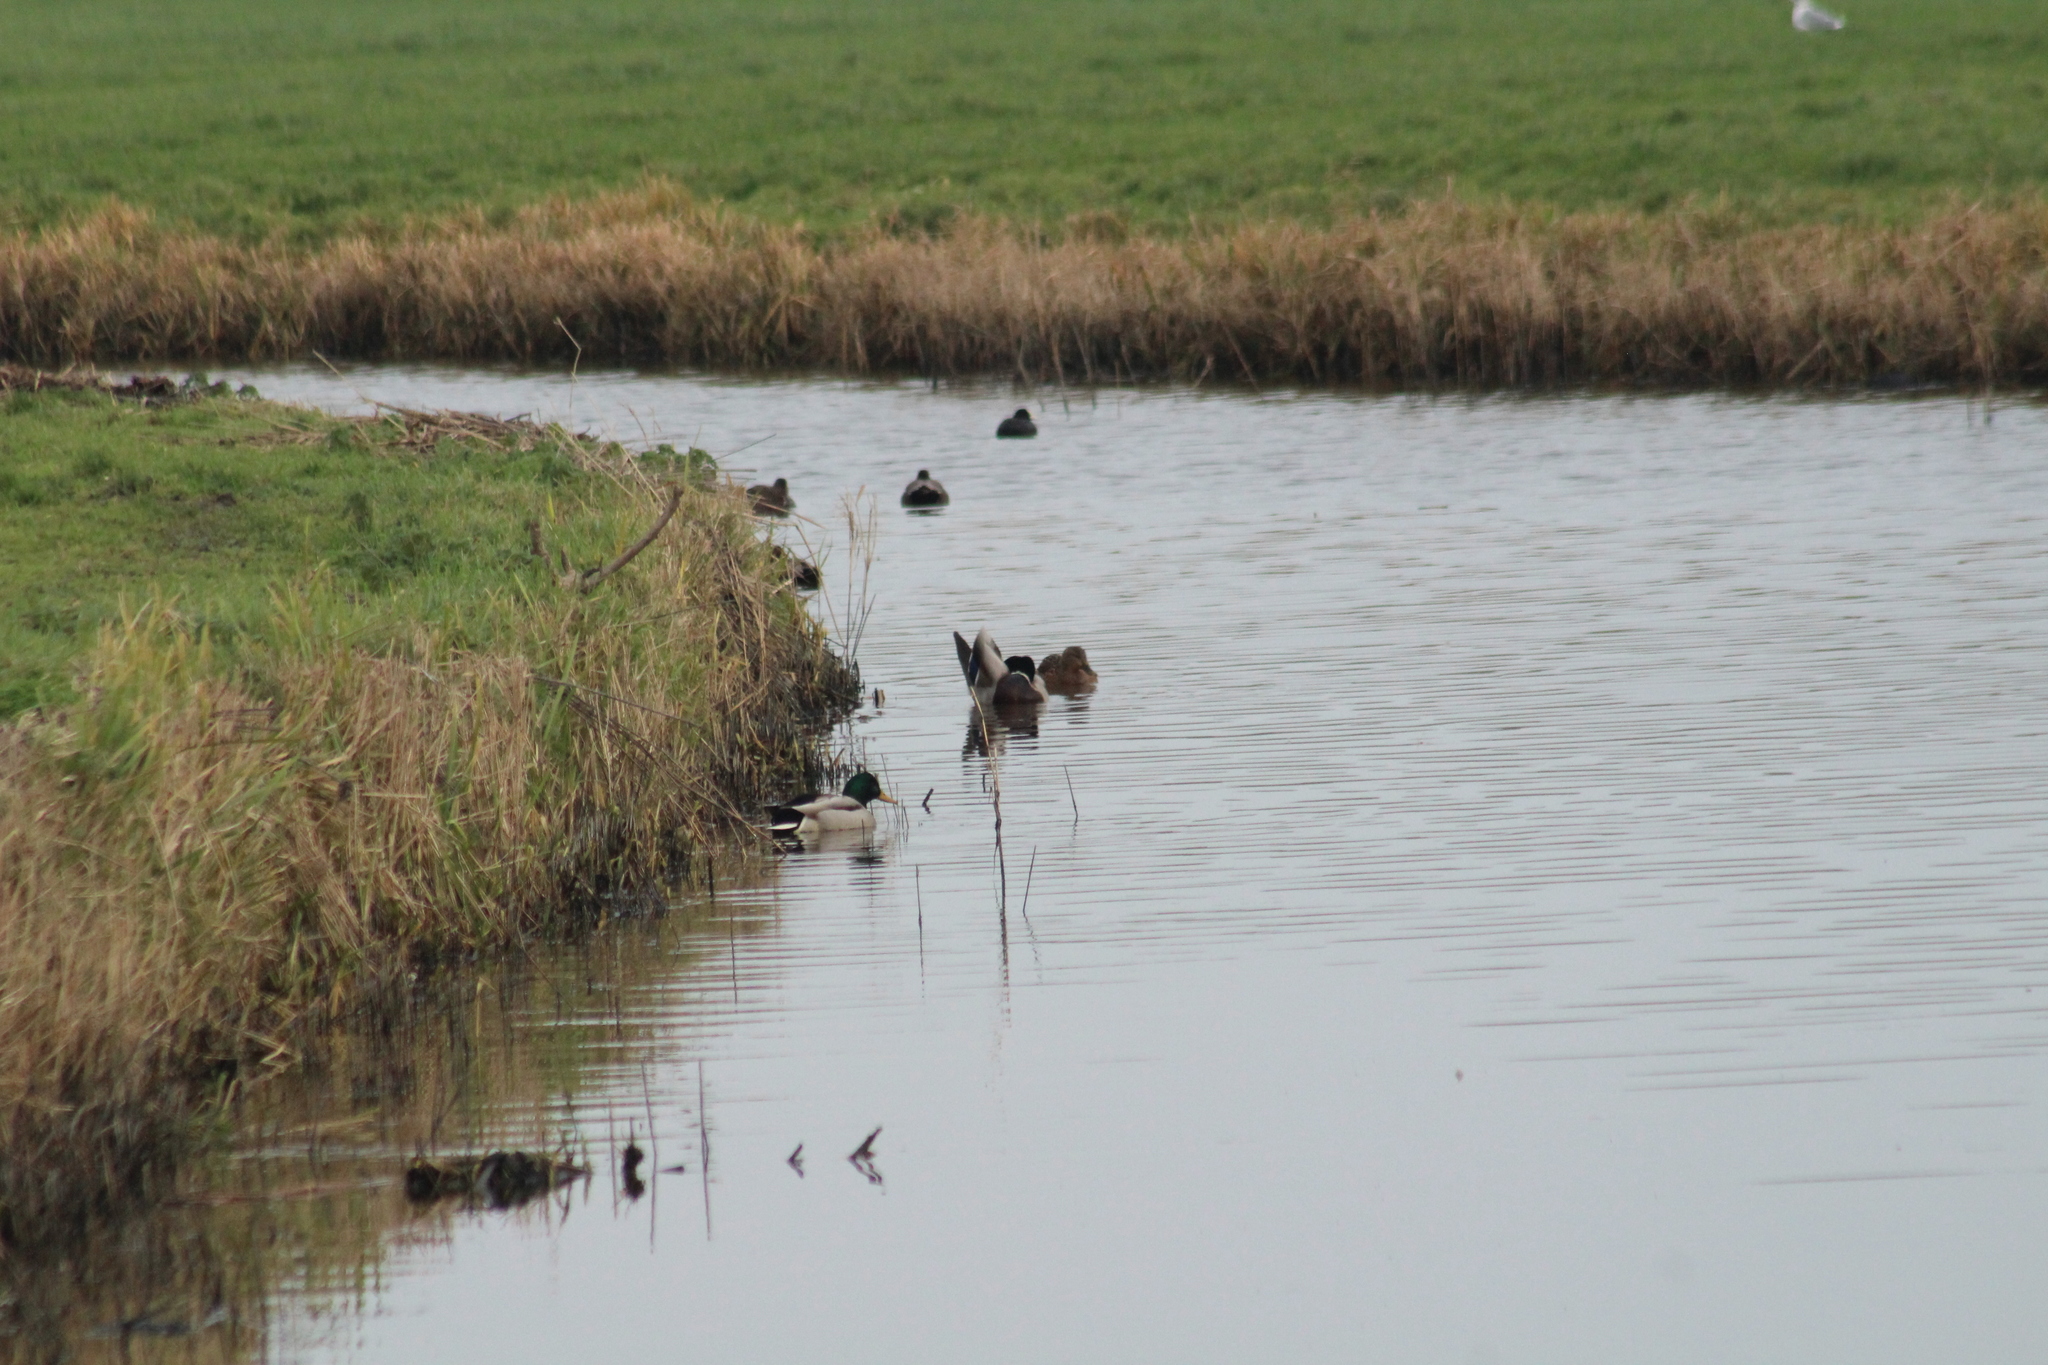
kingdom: Animalia
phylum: Chordata
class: Aves
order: Anseriformes
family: Anatidae
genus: Anas
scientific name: Anas platyrhynchos
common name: Mallard
